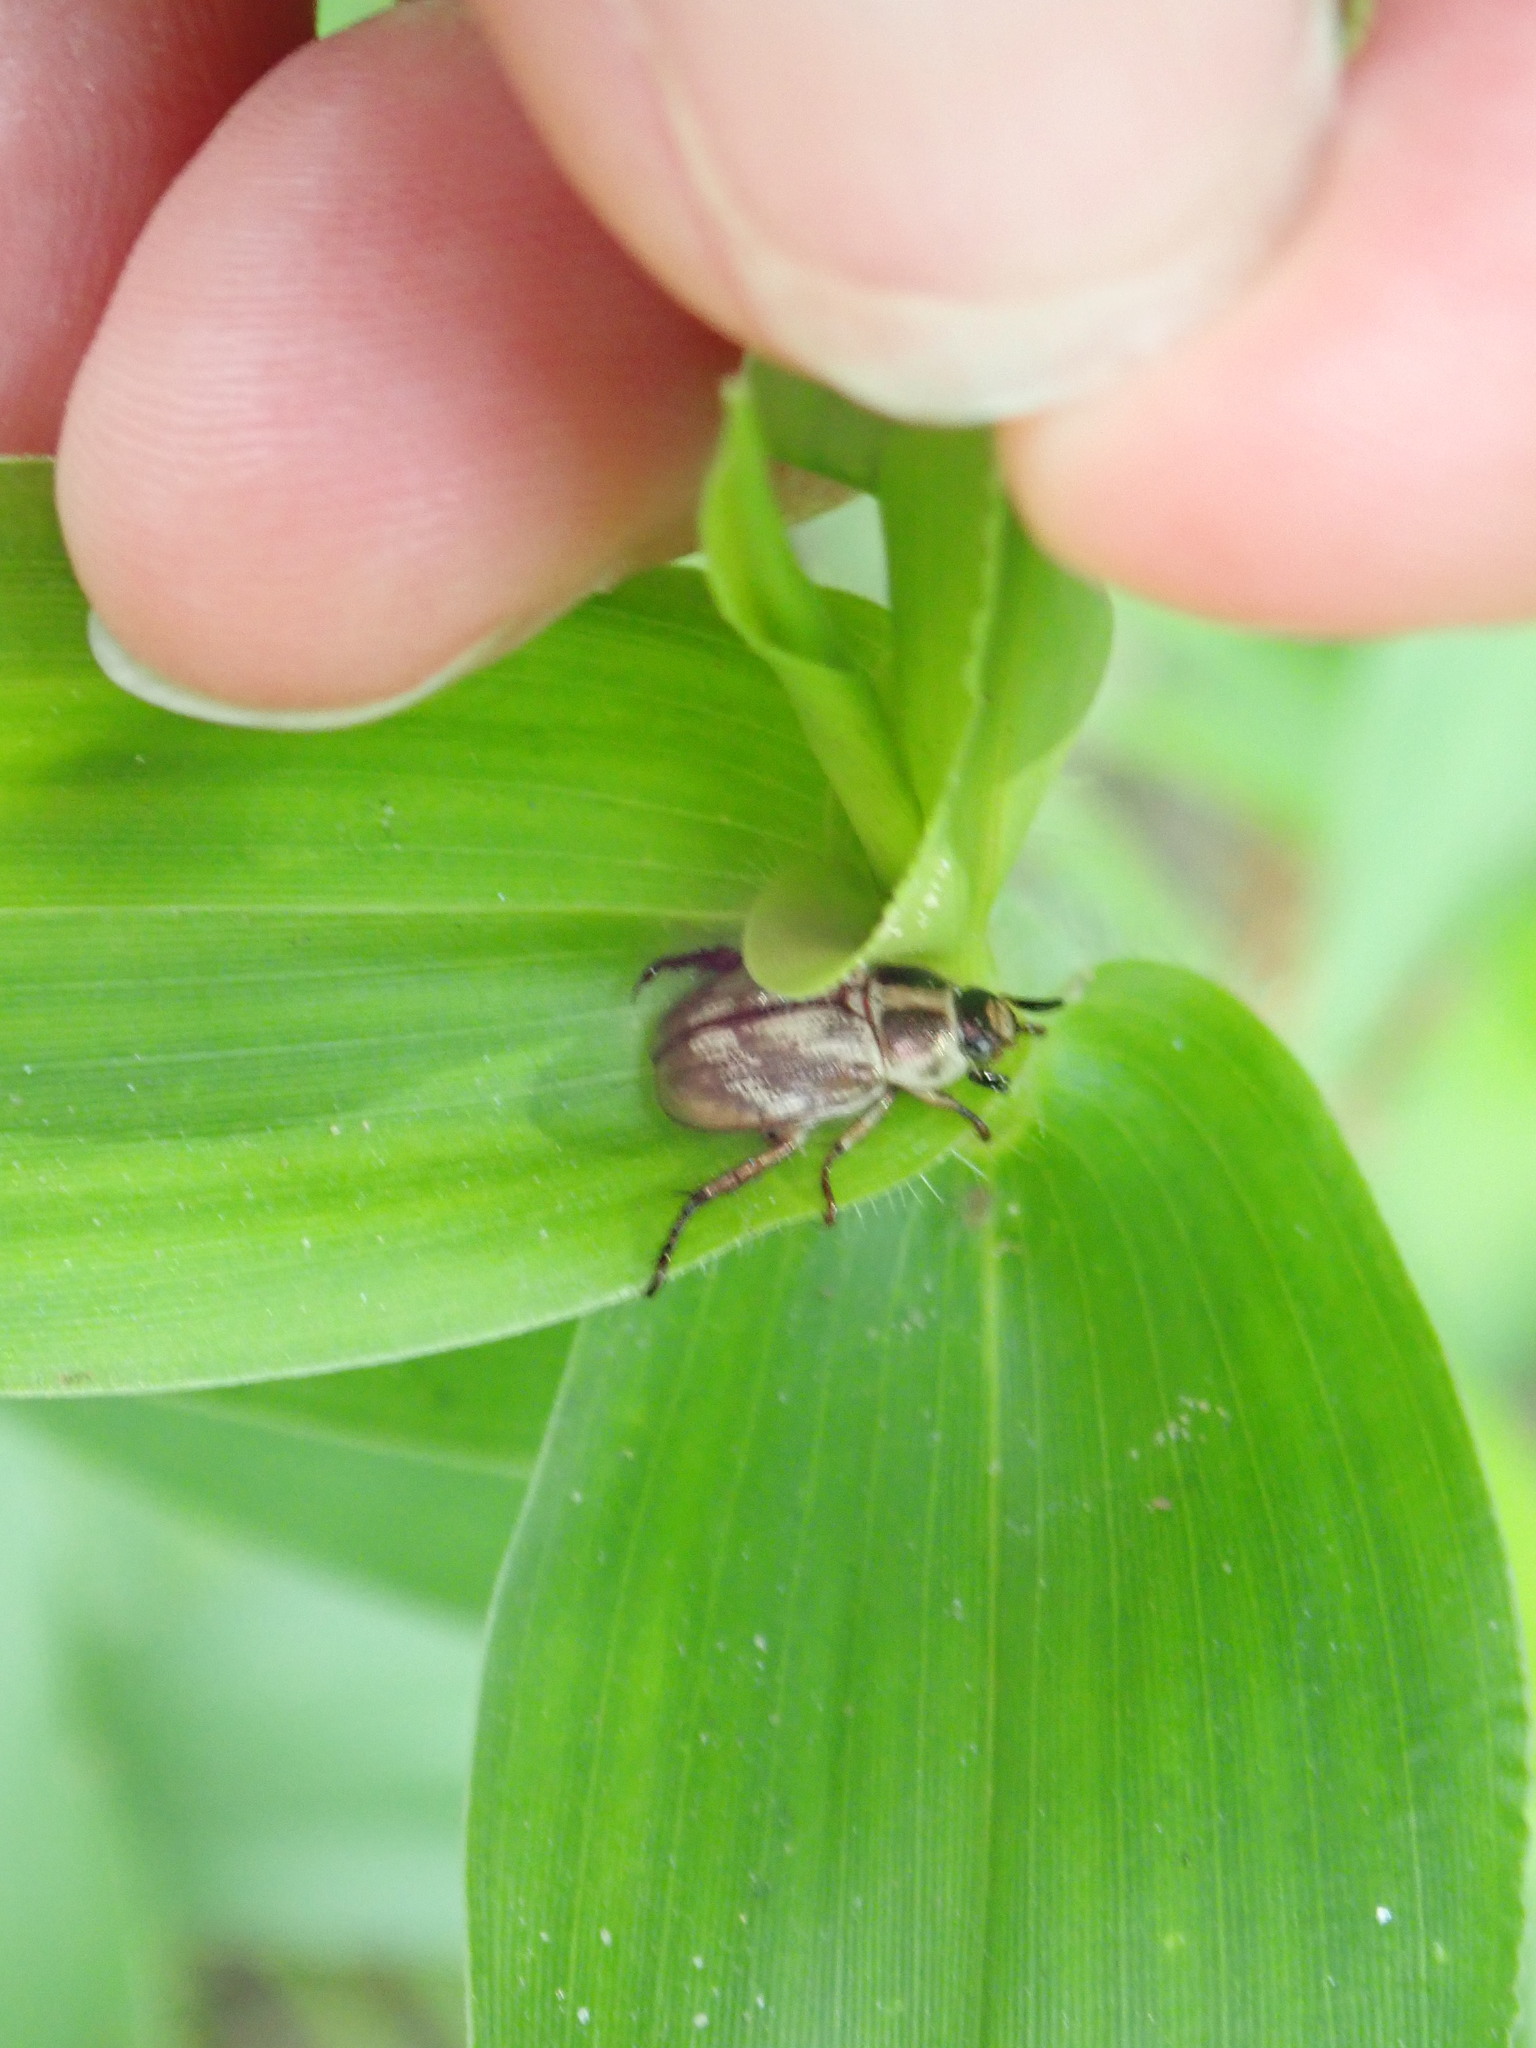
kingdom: Animalia
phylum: Arthropoda
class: Insecta
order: Coleoptera
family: Scarabaeidae
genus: Exomala
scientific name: Exomala orientalis
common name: Oriental beetle
